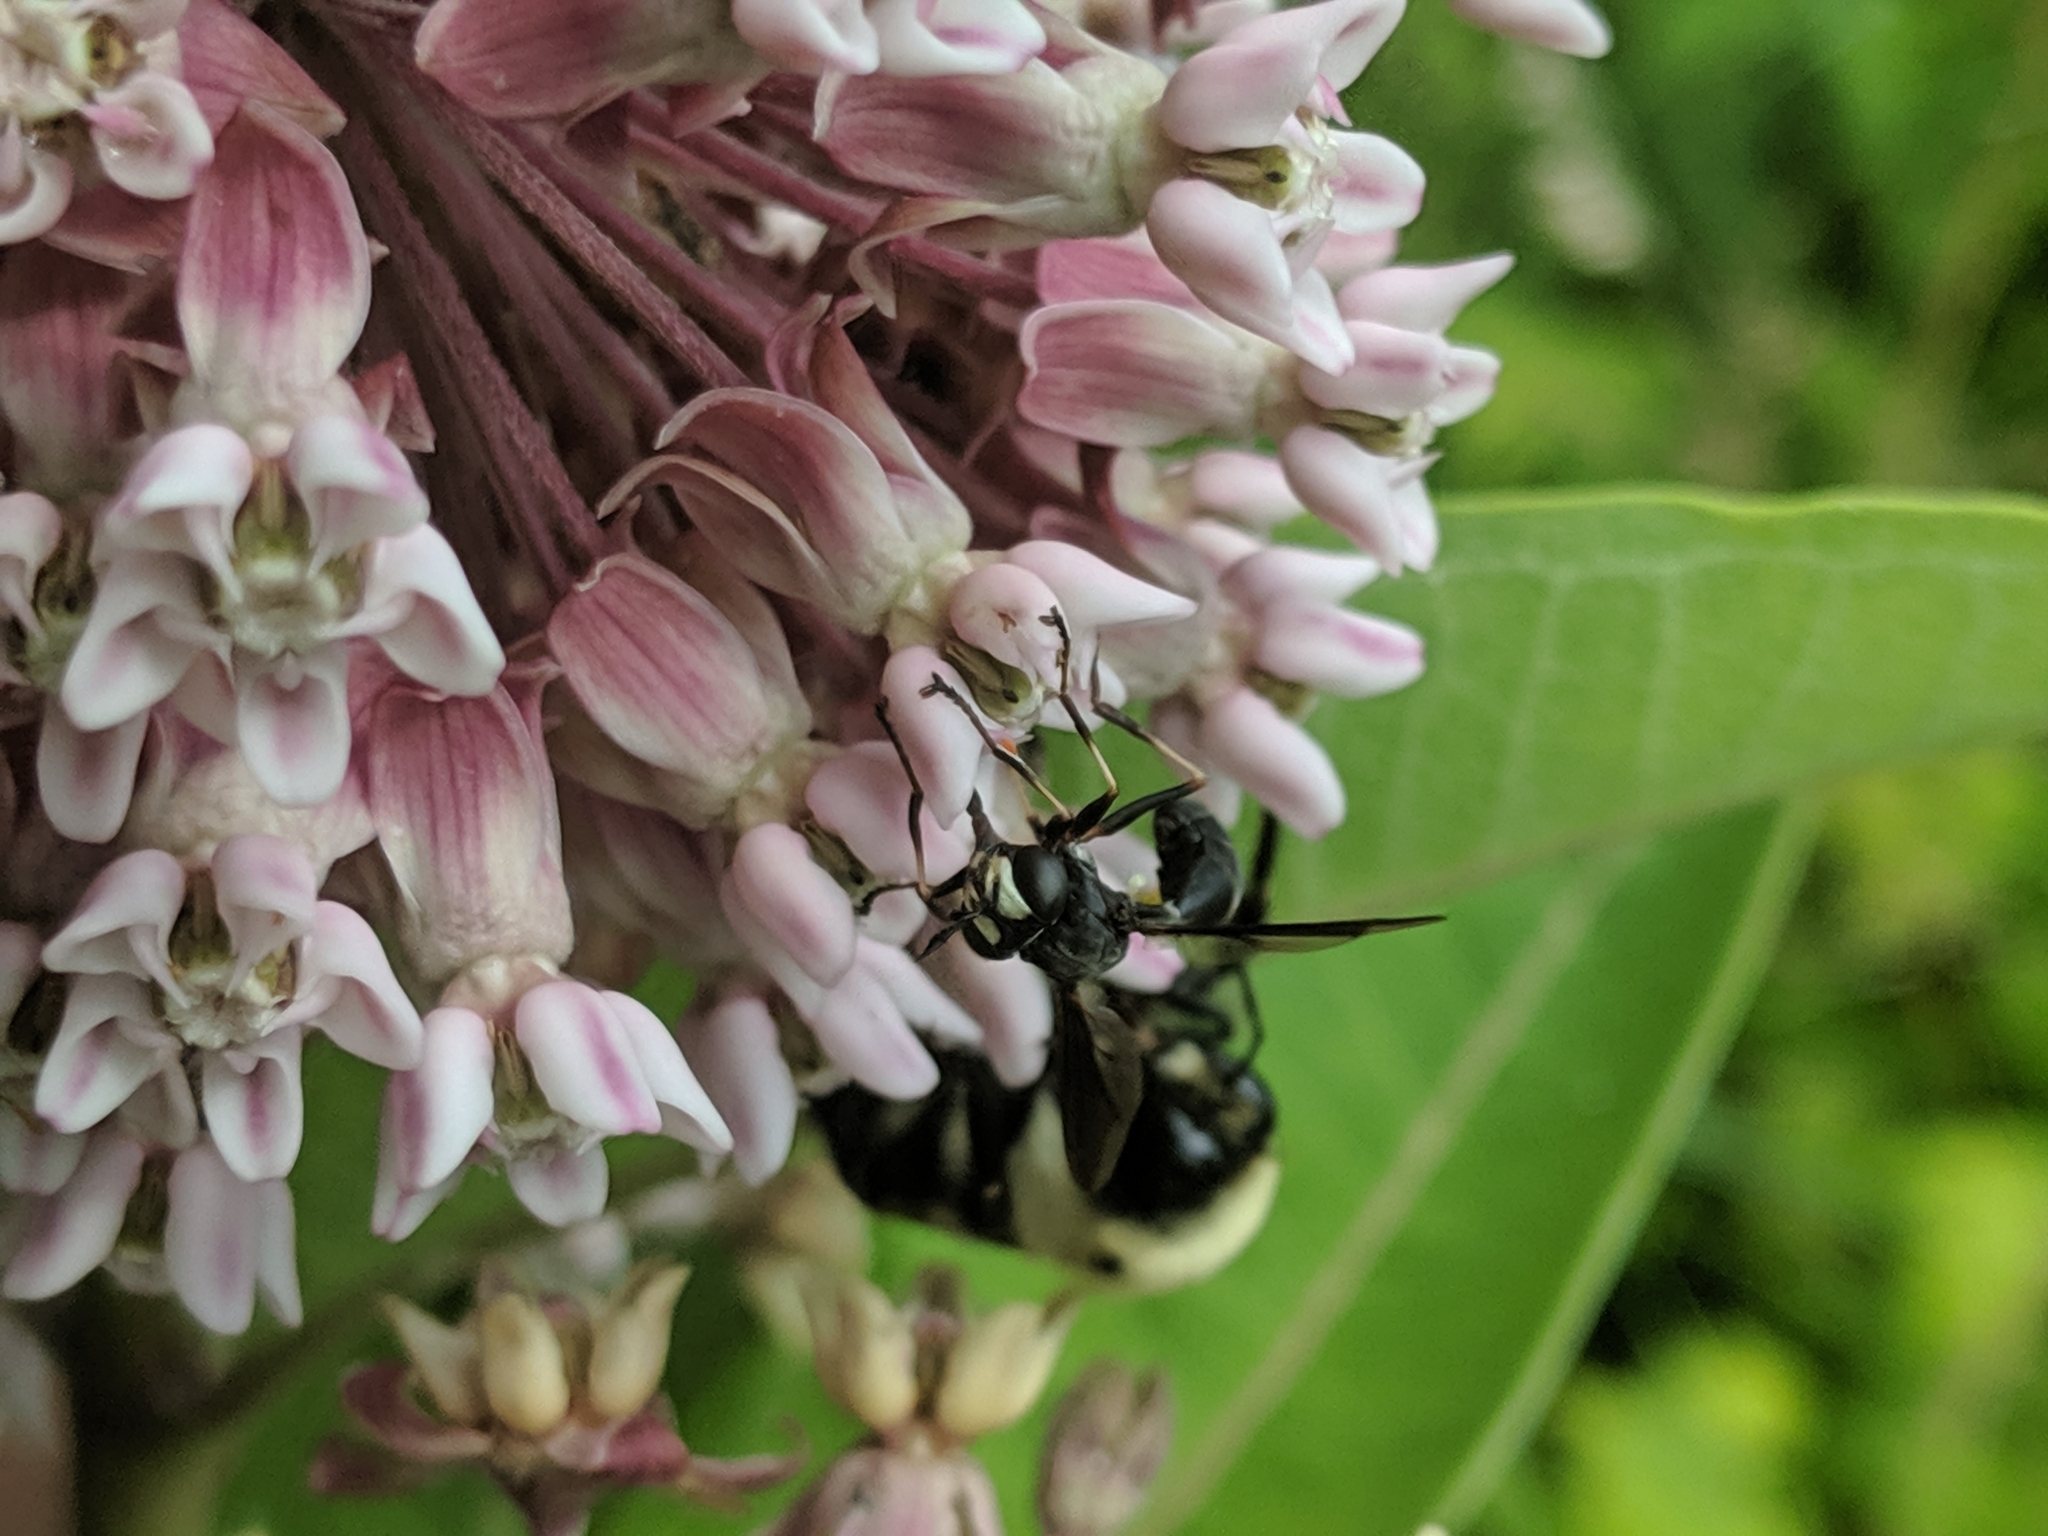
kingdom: Animalia
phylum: Arthropoda
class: Insecta
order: Diptera
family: Conopidae
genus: Physocephala
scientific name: Physocephala tibialis
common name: Common eastern physocephala
